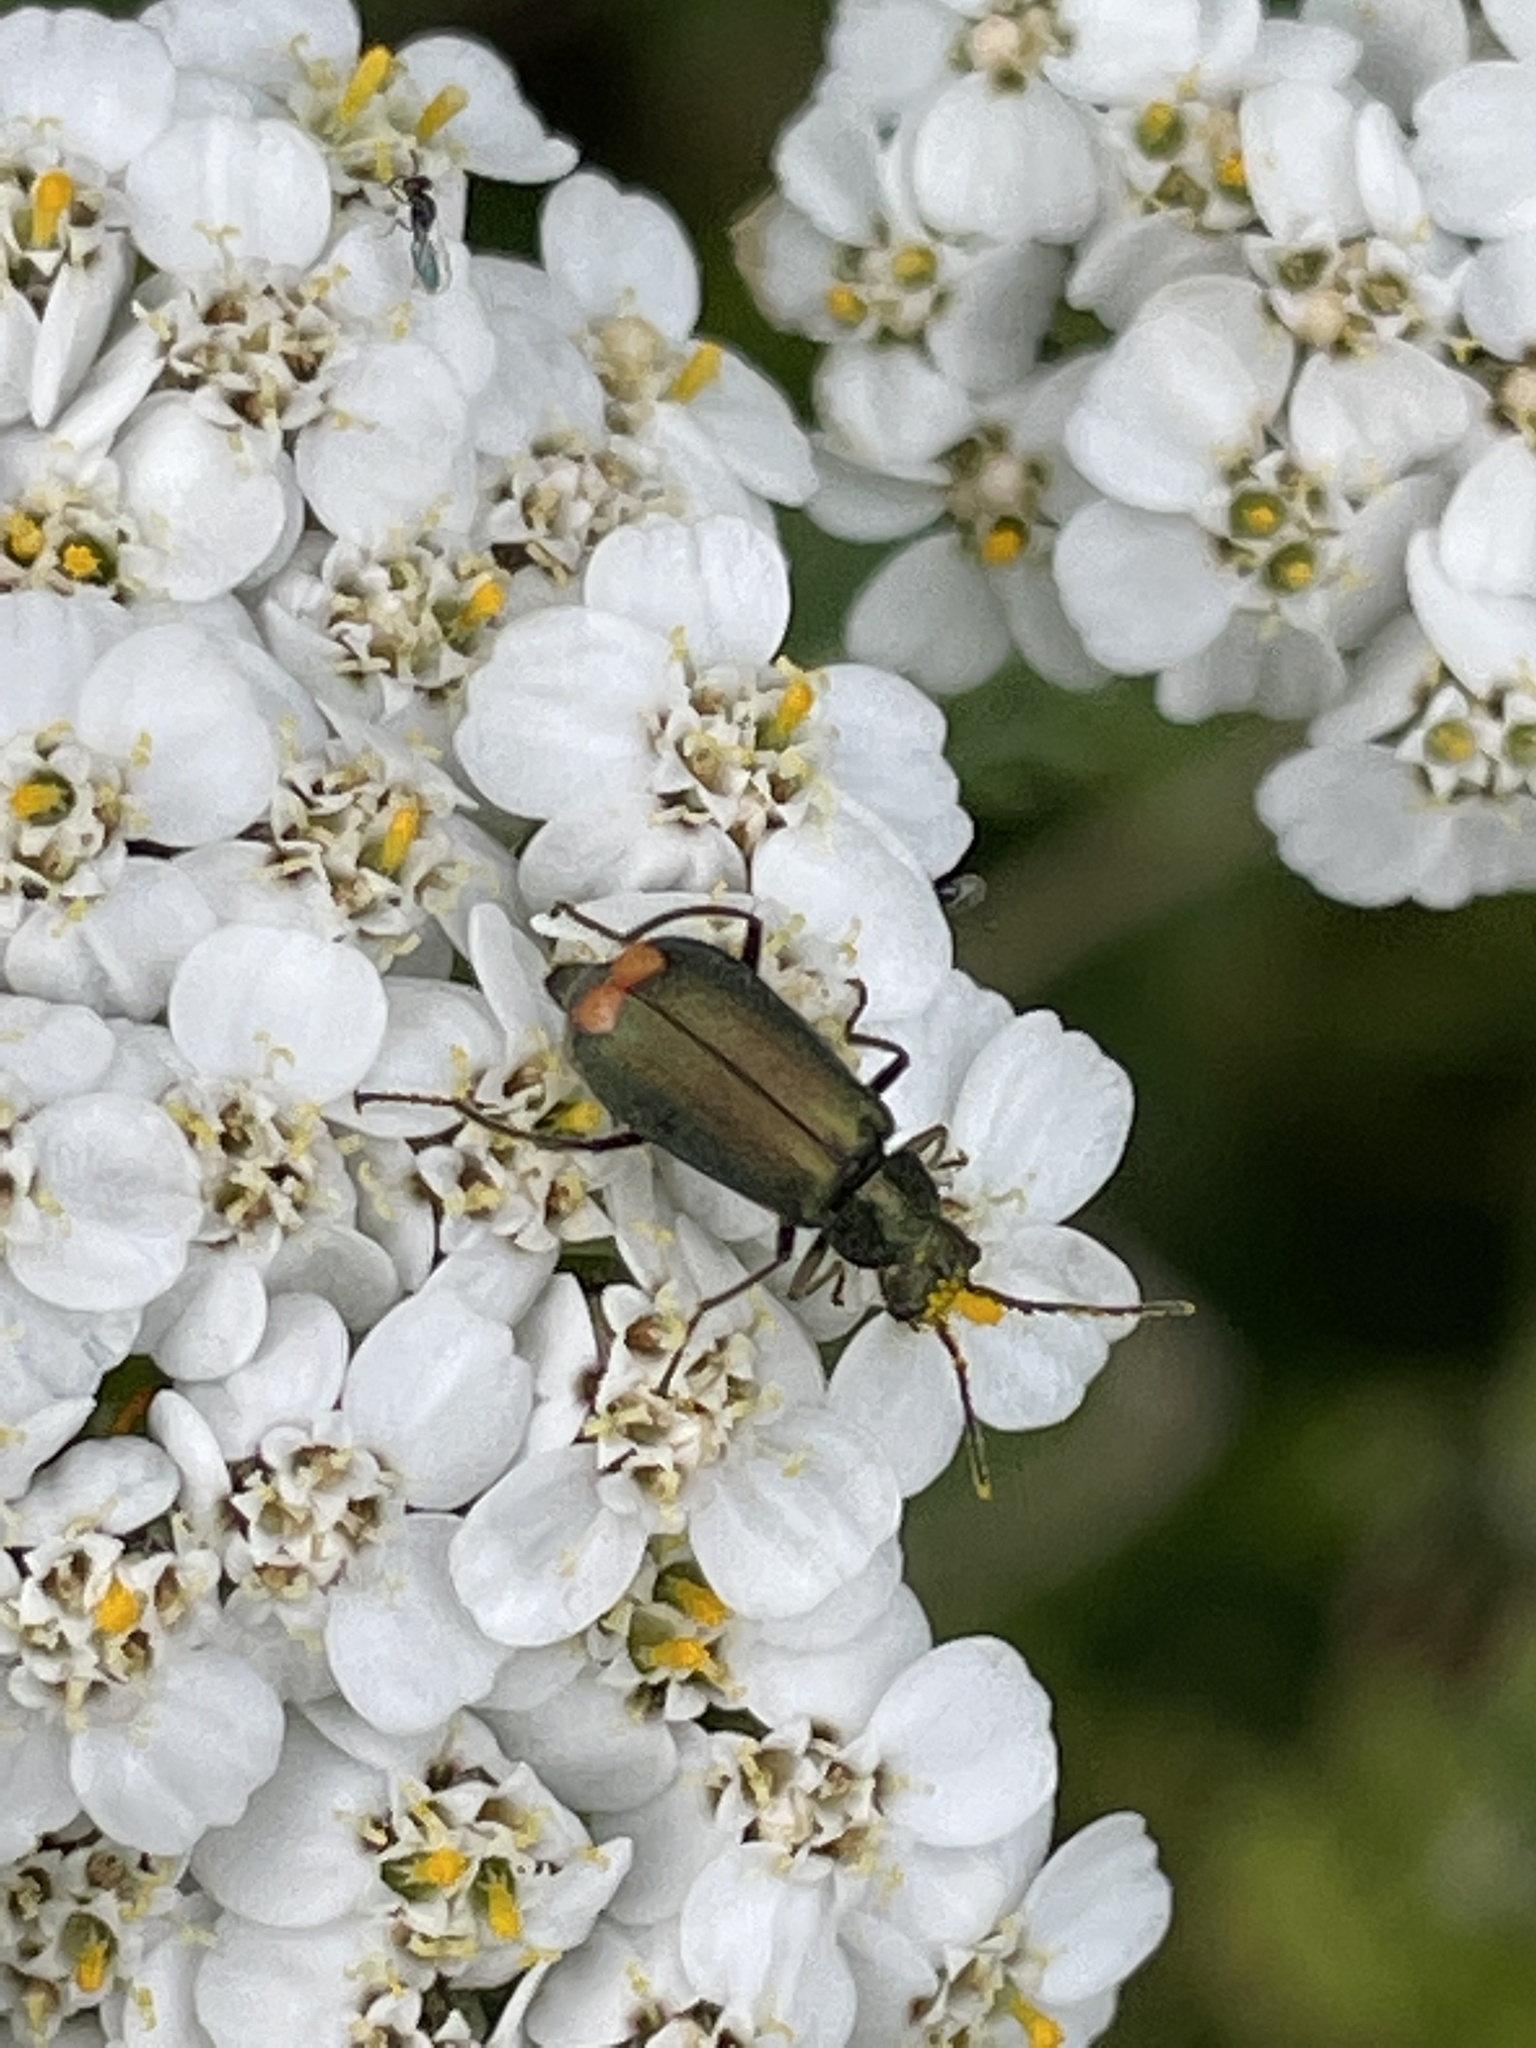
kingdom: Animalia
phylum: Arthropoda
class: Insecta
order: Coleoptera
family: Melyridae
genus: Malachius
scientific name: Malachius bipustulatus
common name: Malachite beetle
